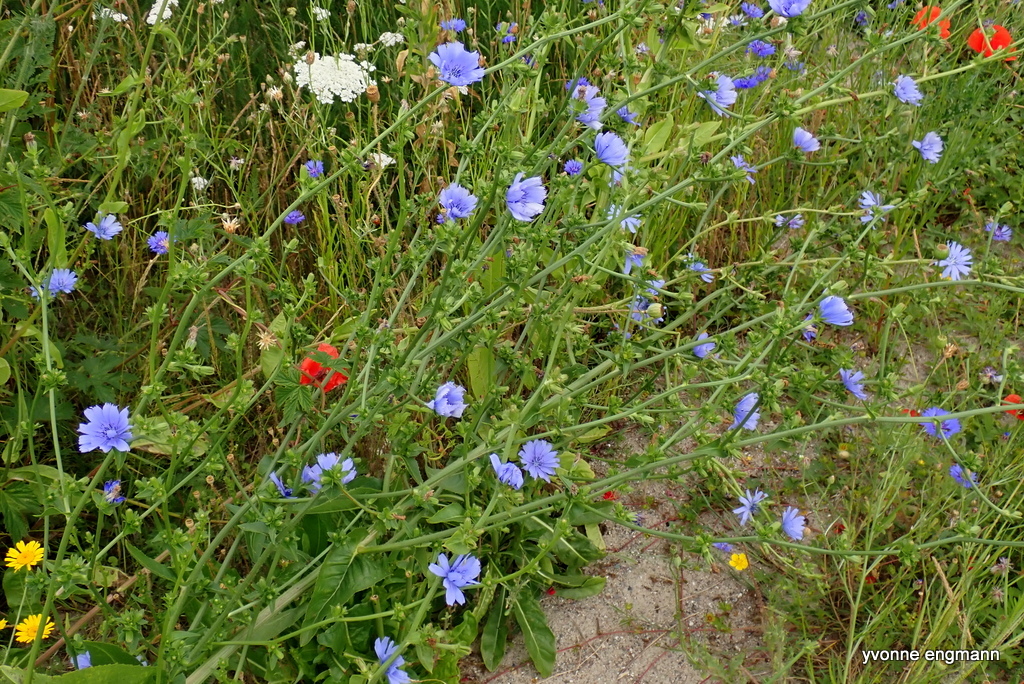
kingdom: Plantae
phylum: Tracheophyta
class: Magnoliopsida
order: Asterales
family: Asteraceae
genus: Cichorium
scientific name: Cichorium intybus
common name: Chicory
